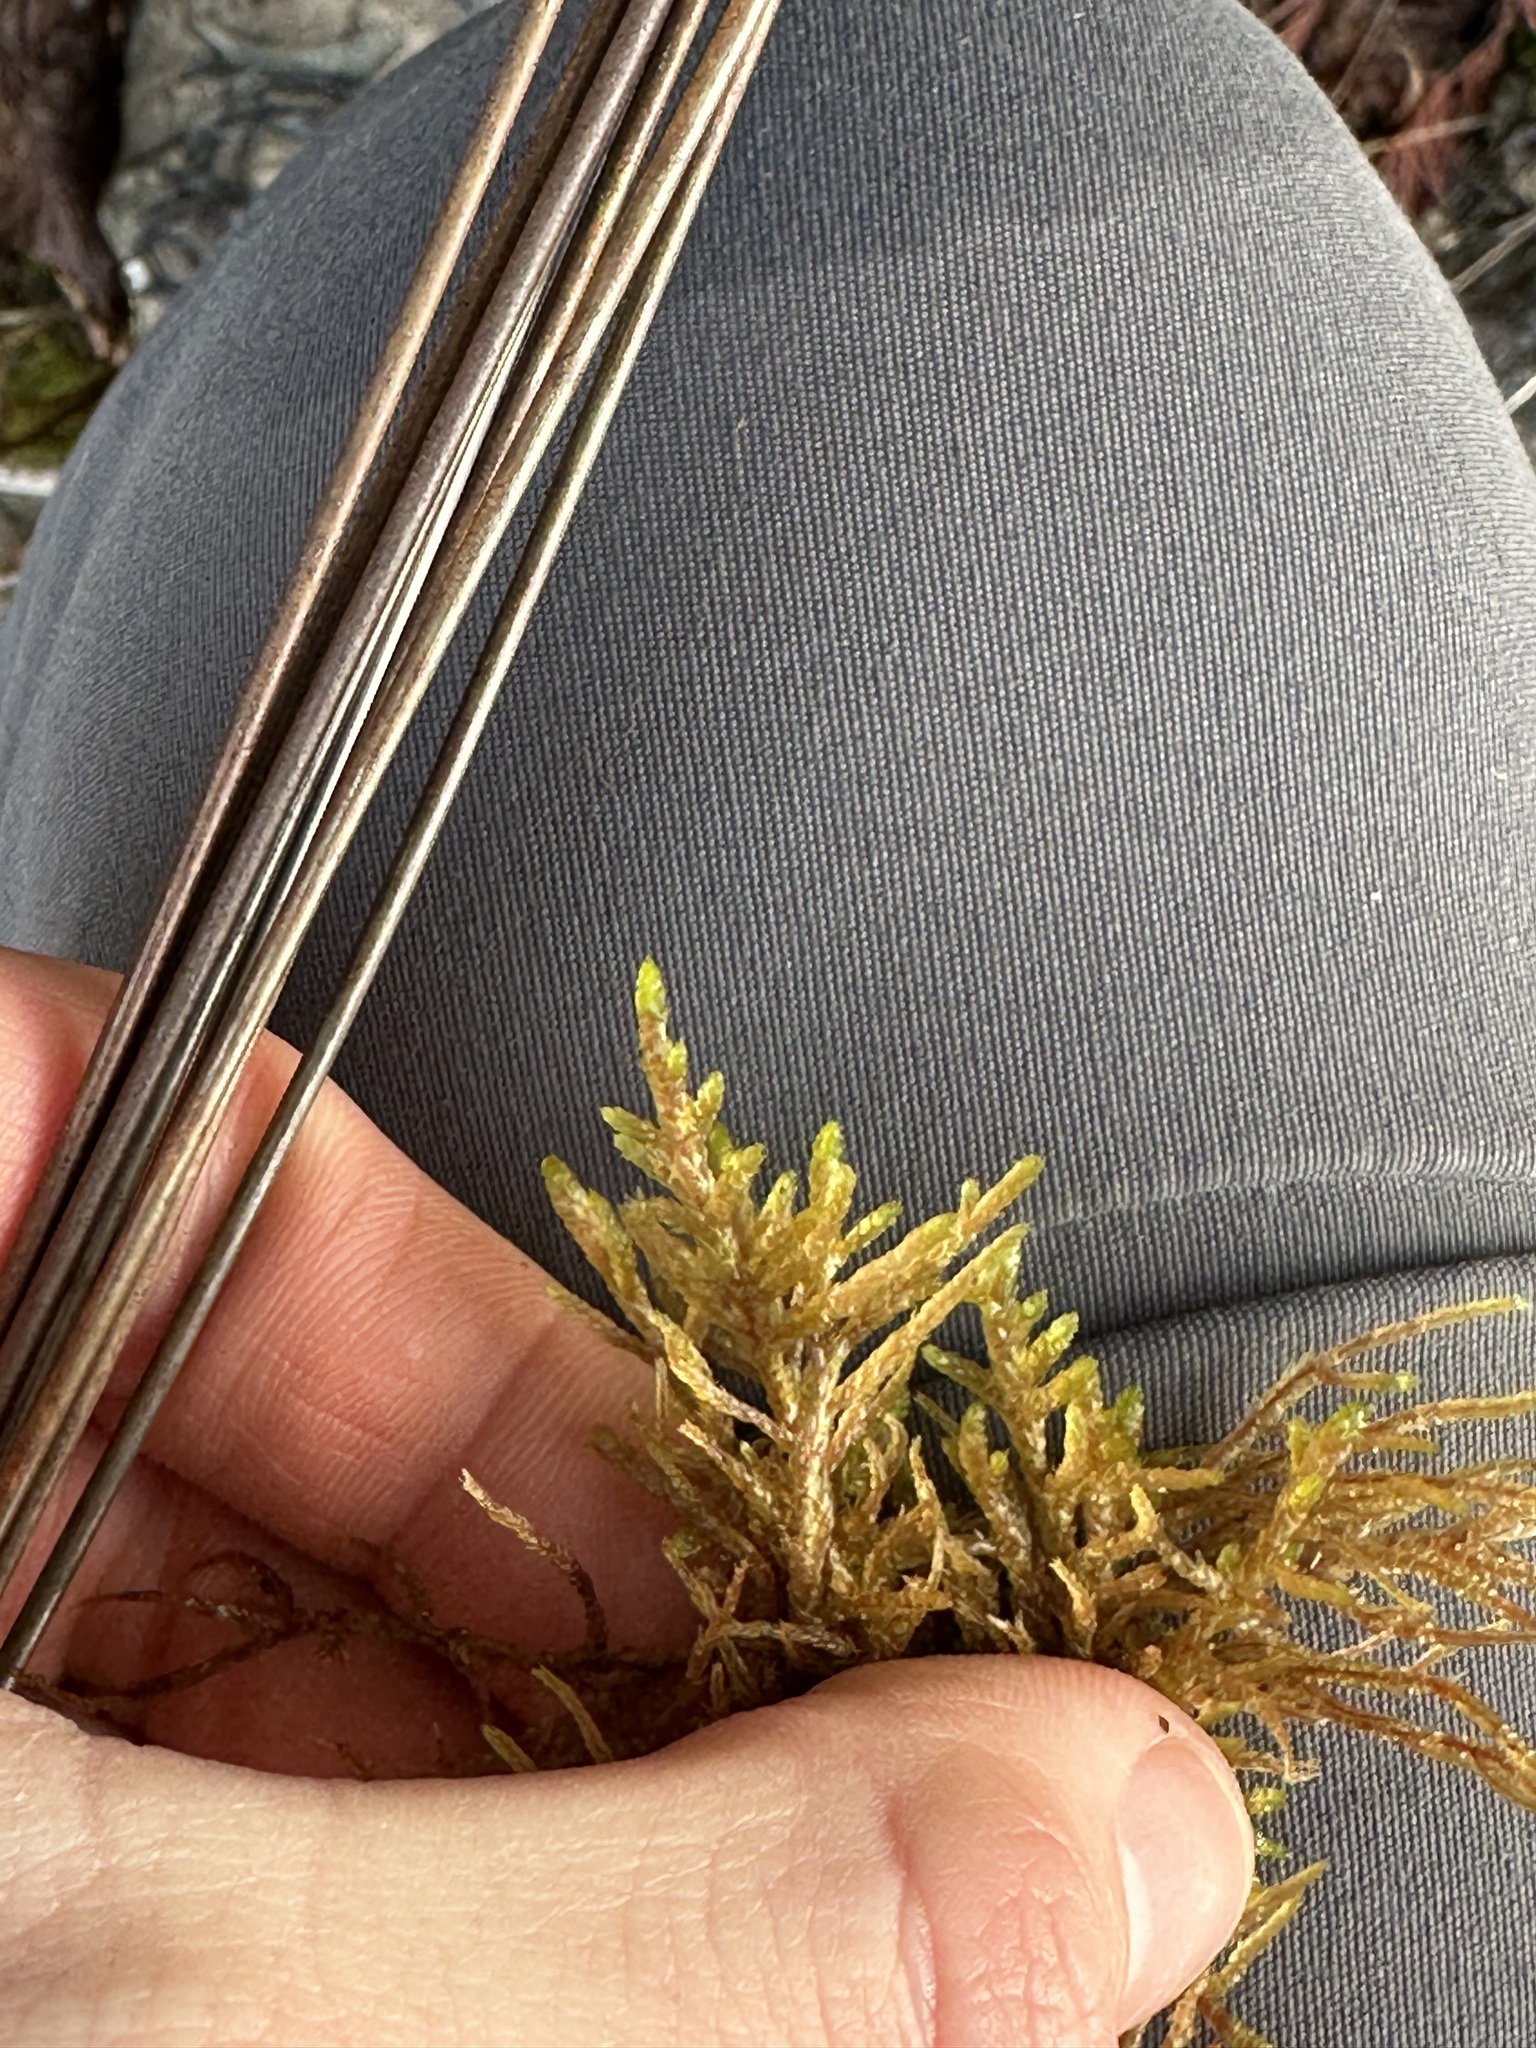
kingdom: Plantae
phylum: Bryophyta
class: Bryopsida
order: Hypnales
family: Hylocomiaceae
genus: Pleurozium
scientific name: Pleurozium schreberi
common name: Red-stemmed feather moss
